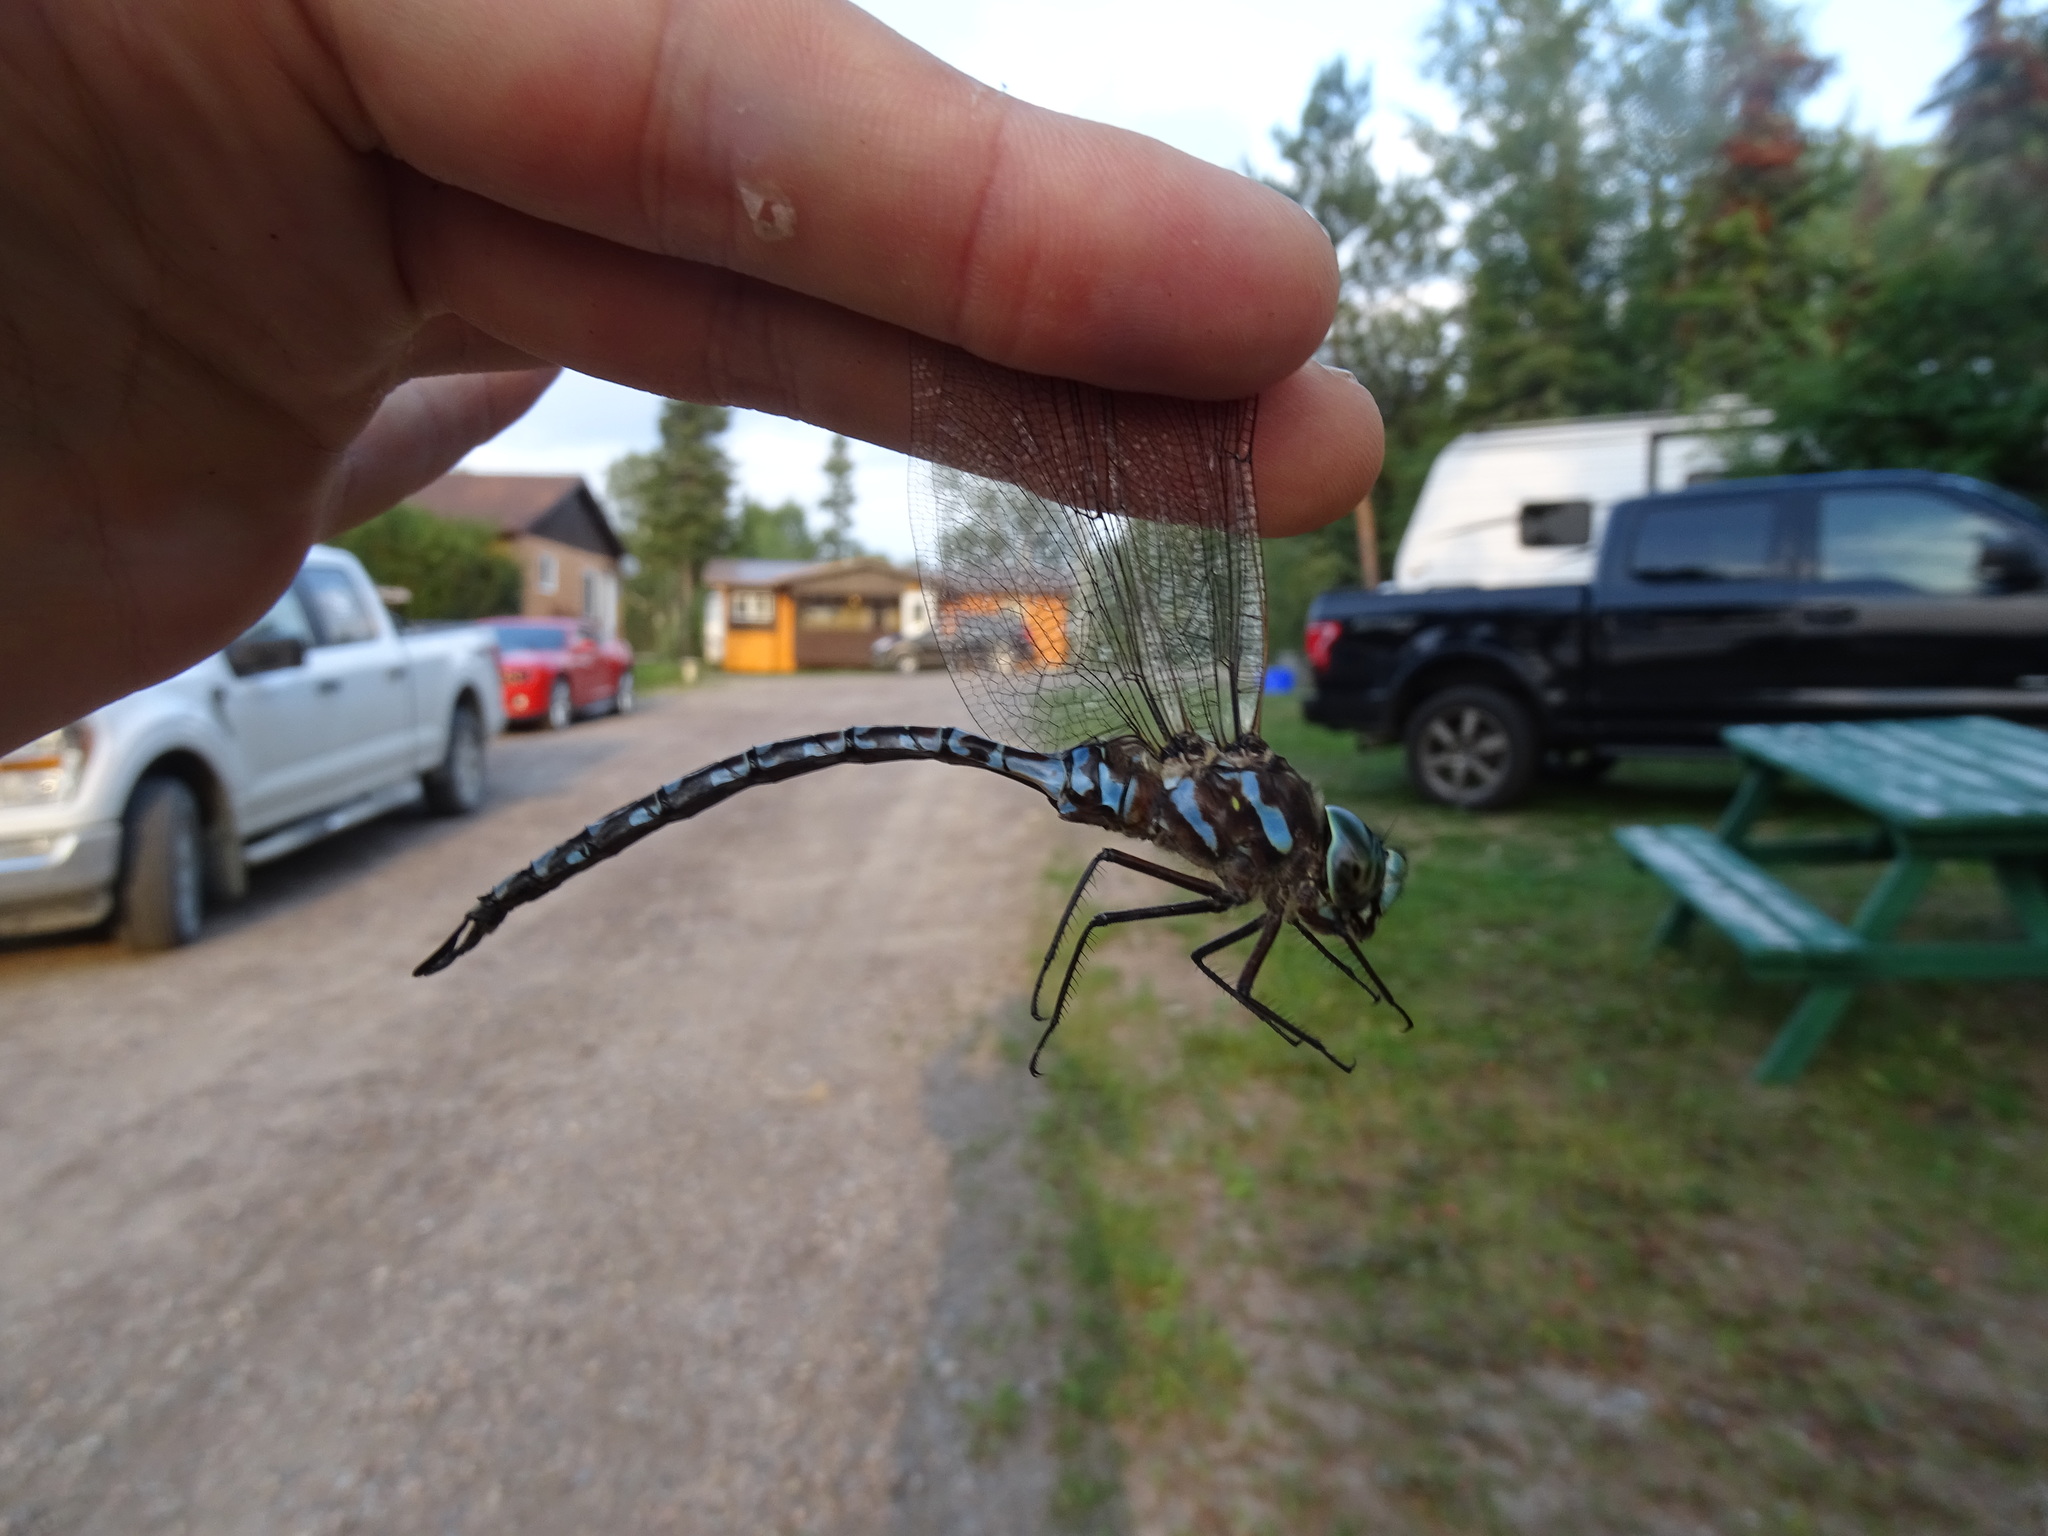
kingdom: Animalia
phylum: Arthropoda
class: Insecta
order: Odonata
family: Aeshnidae
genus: Aeshna
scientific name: Aeshna canadensis
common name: Canada darner
